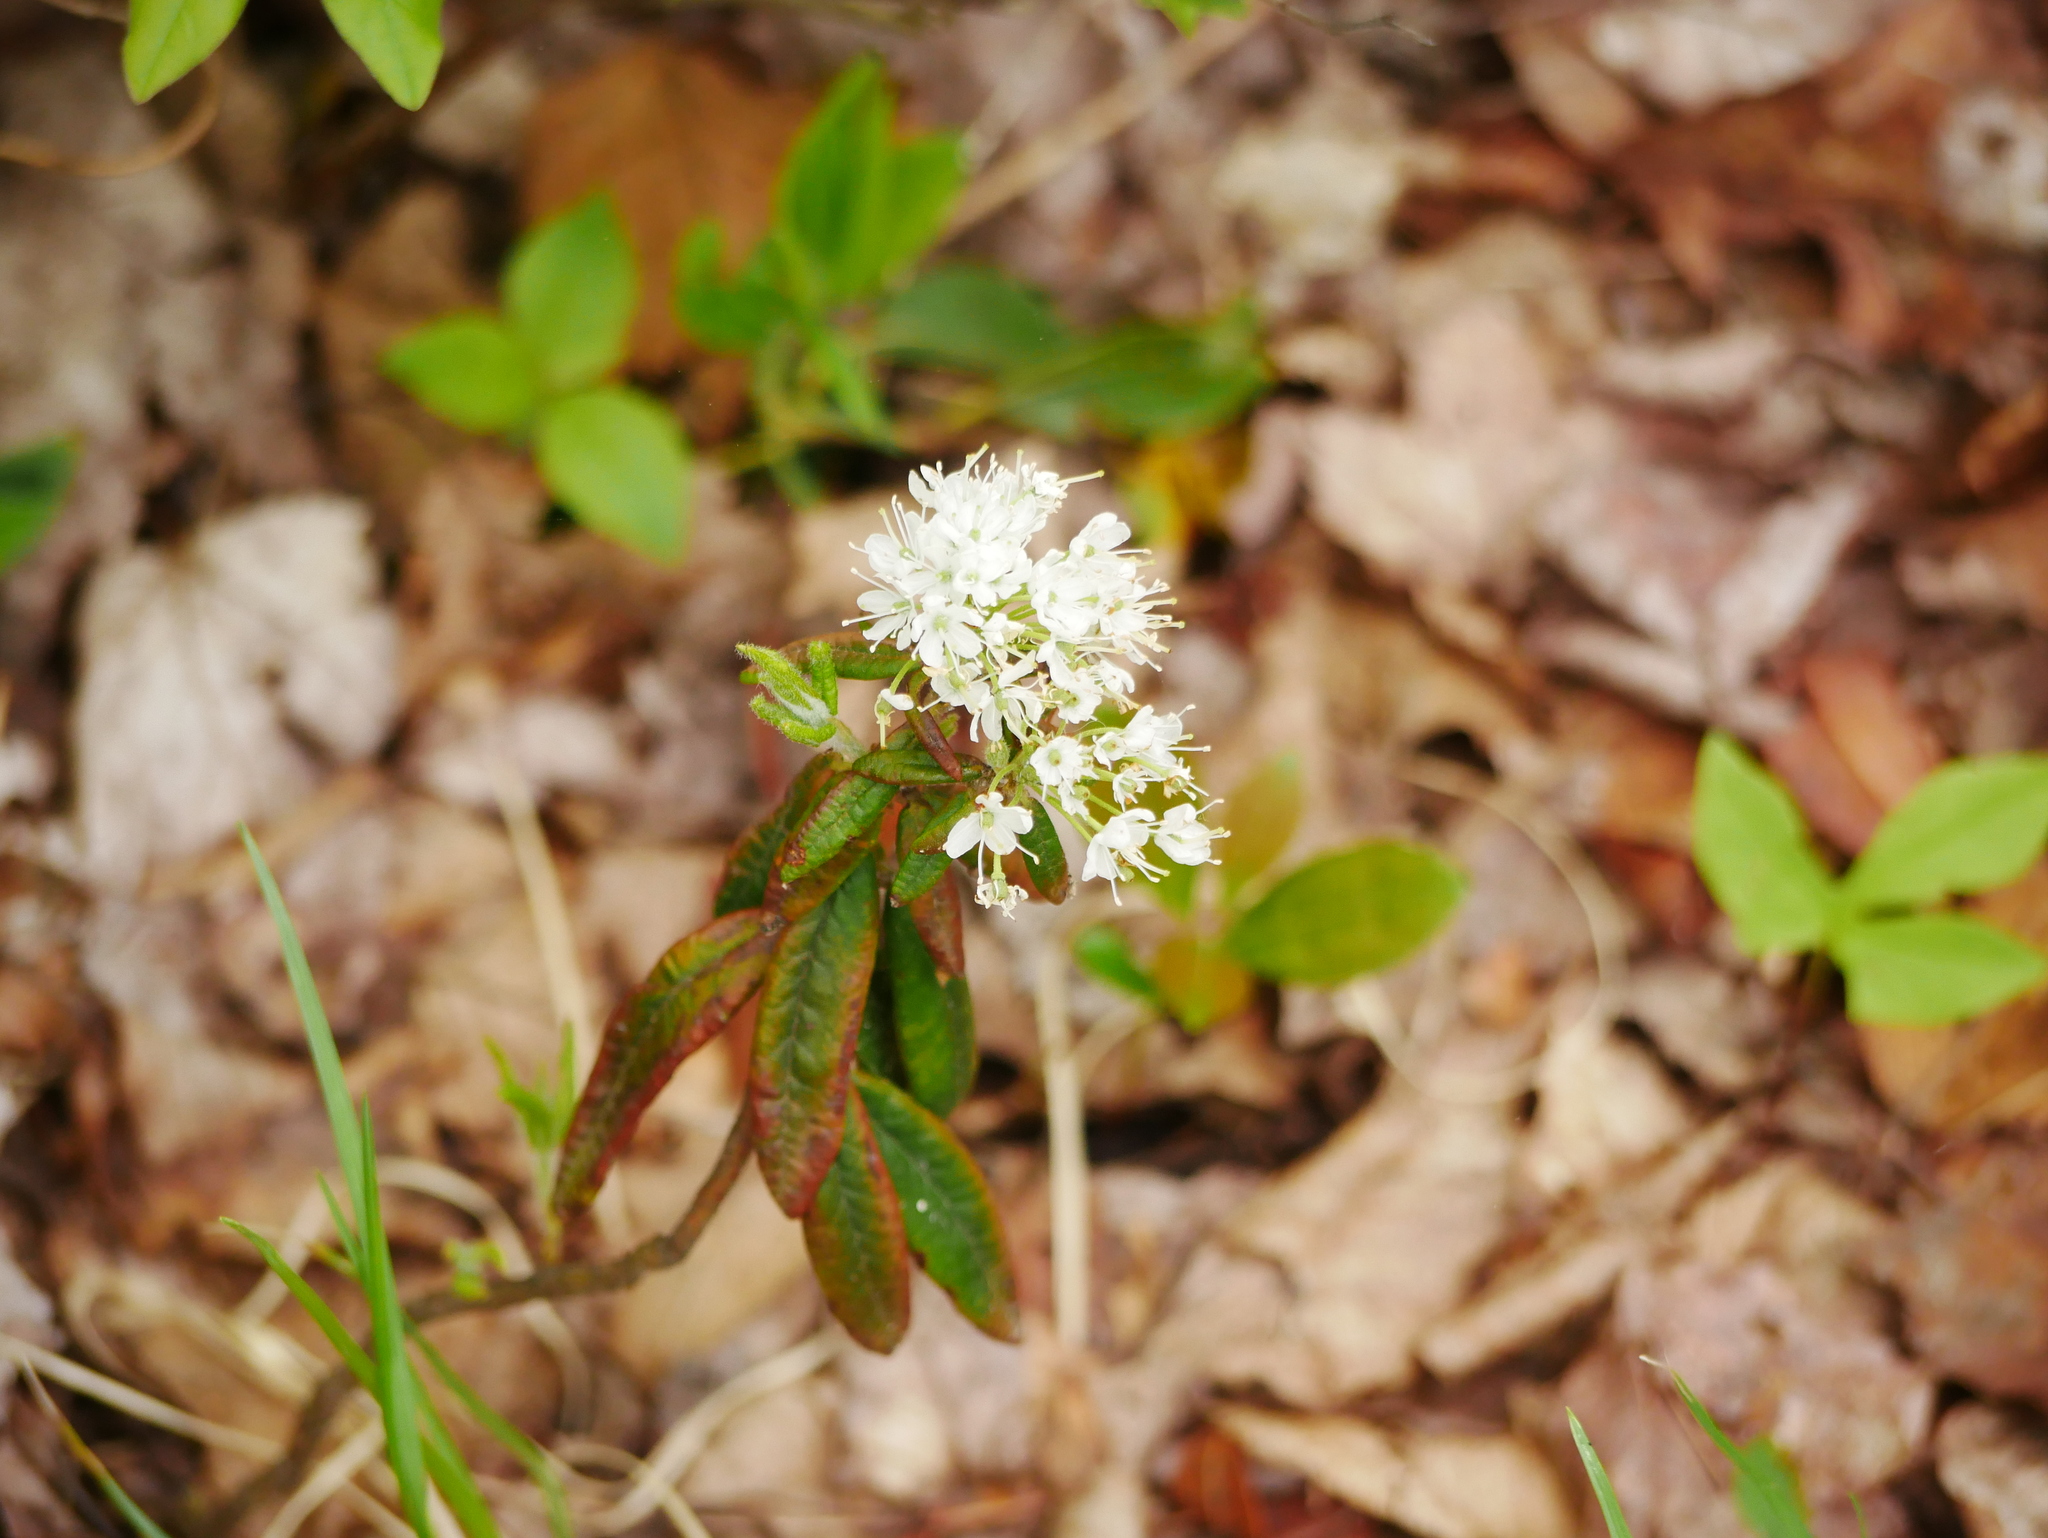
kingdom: Plantae
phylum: Tracheophyta
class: Magnoliopsida
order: Ericales
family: Ericaceae
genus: Rhododendron
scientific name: Rhododendron groenlandicum
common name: Bog labrador tea
